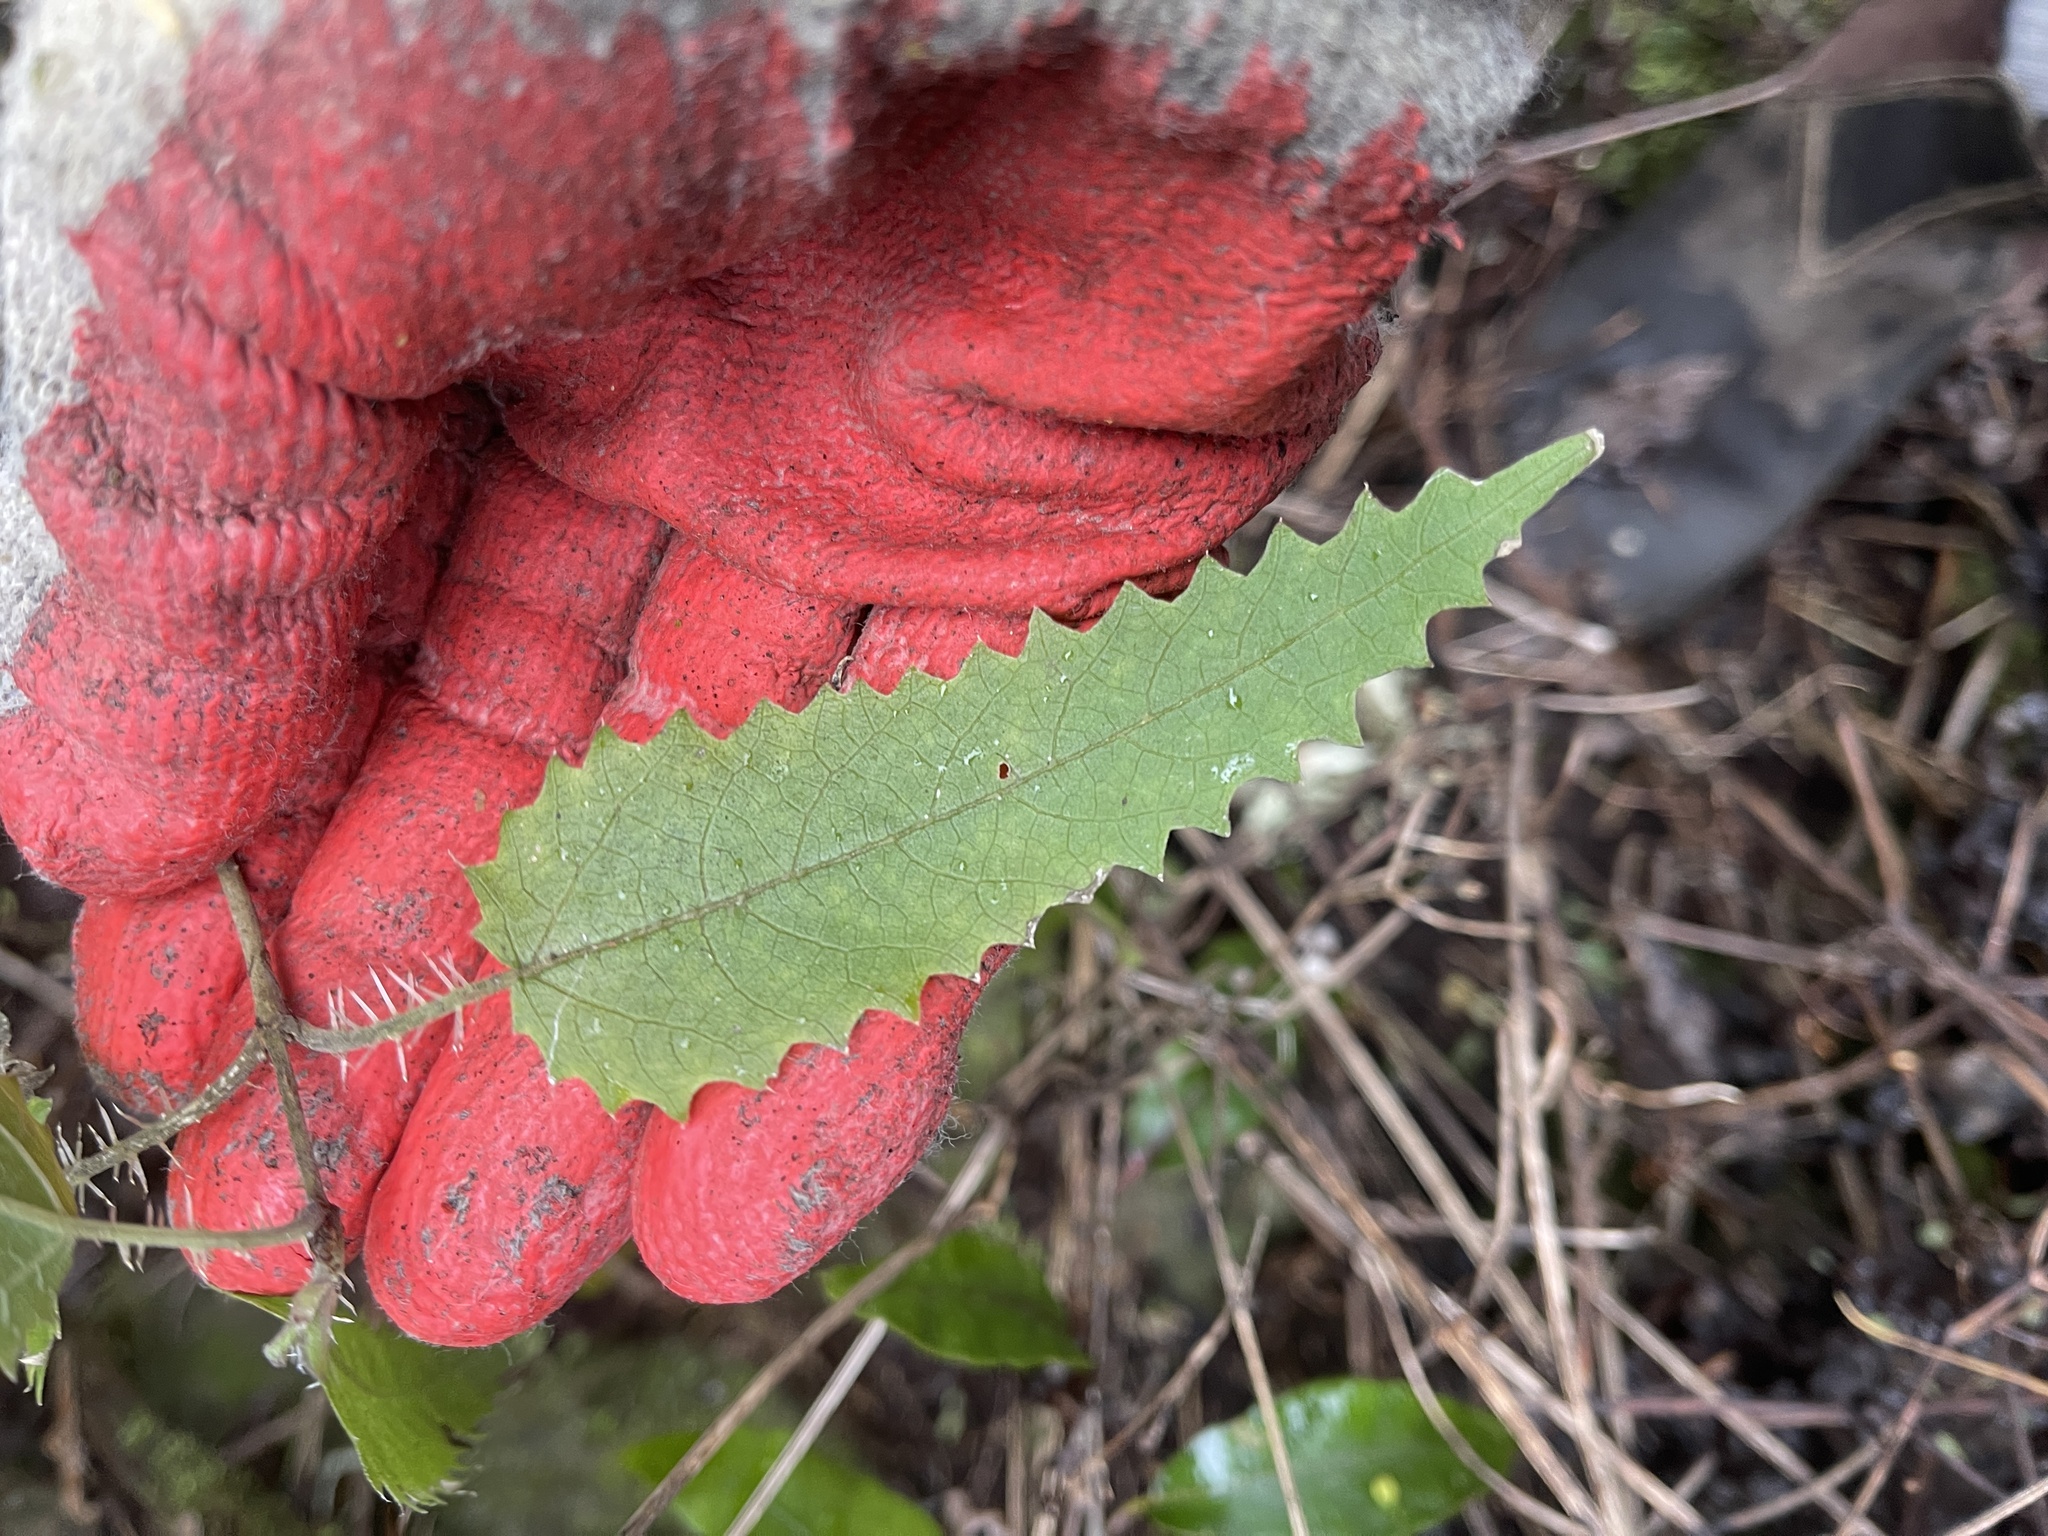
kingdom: Plantae
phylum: Tracheophyta
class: Magnoliopsida
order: Rosales
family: Urticaceae
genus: Urtica
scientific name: Urtica ferox
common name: Tree nettle
